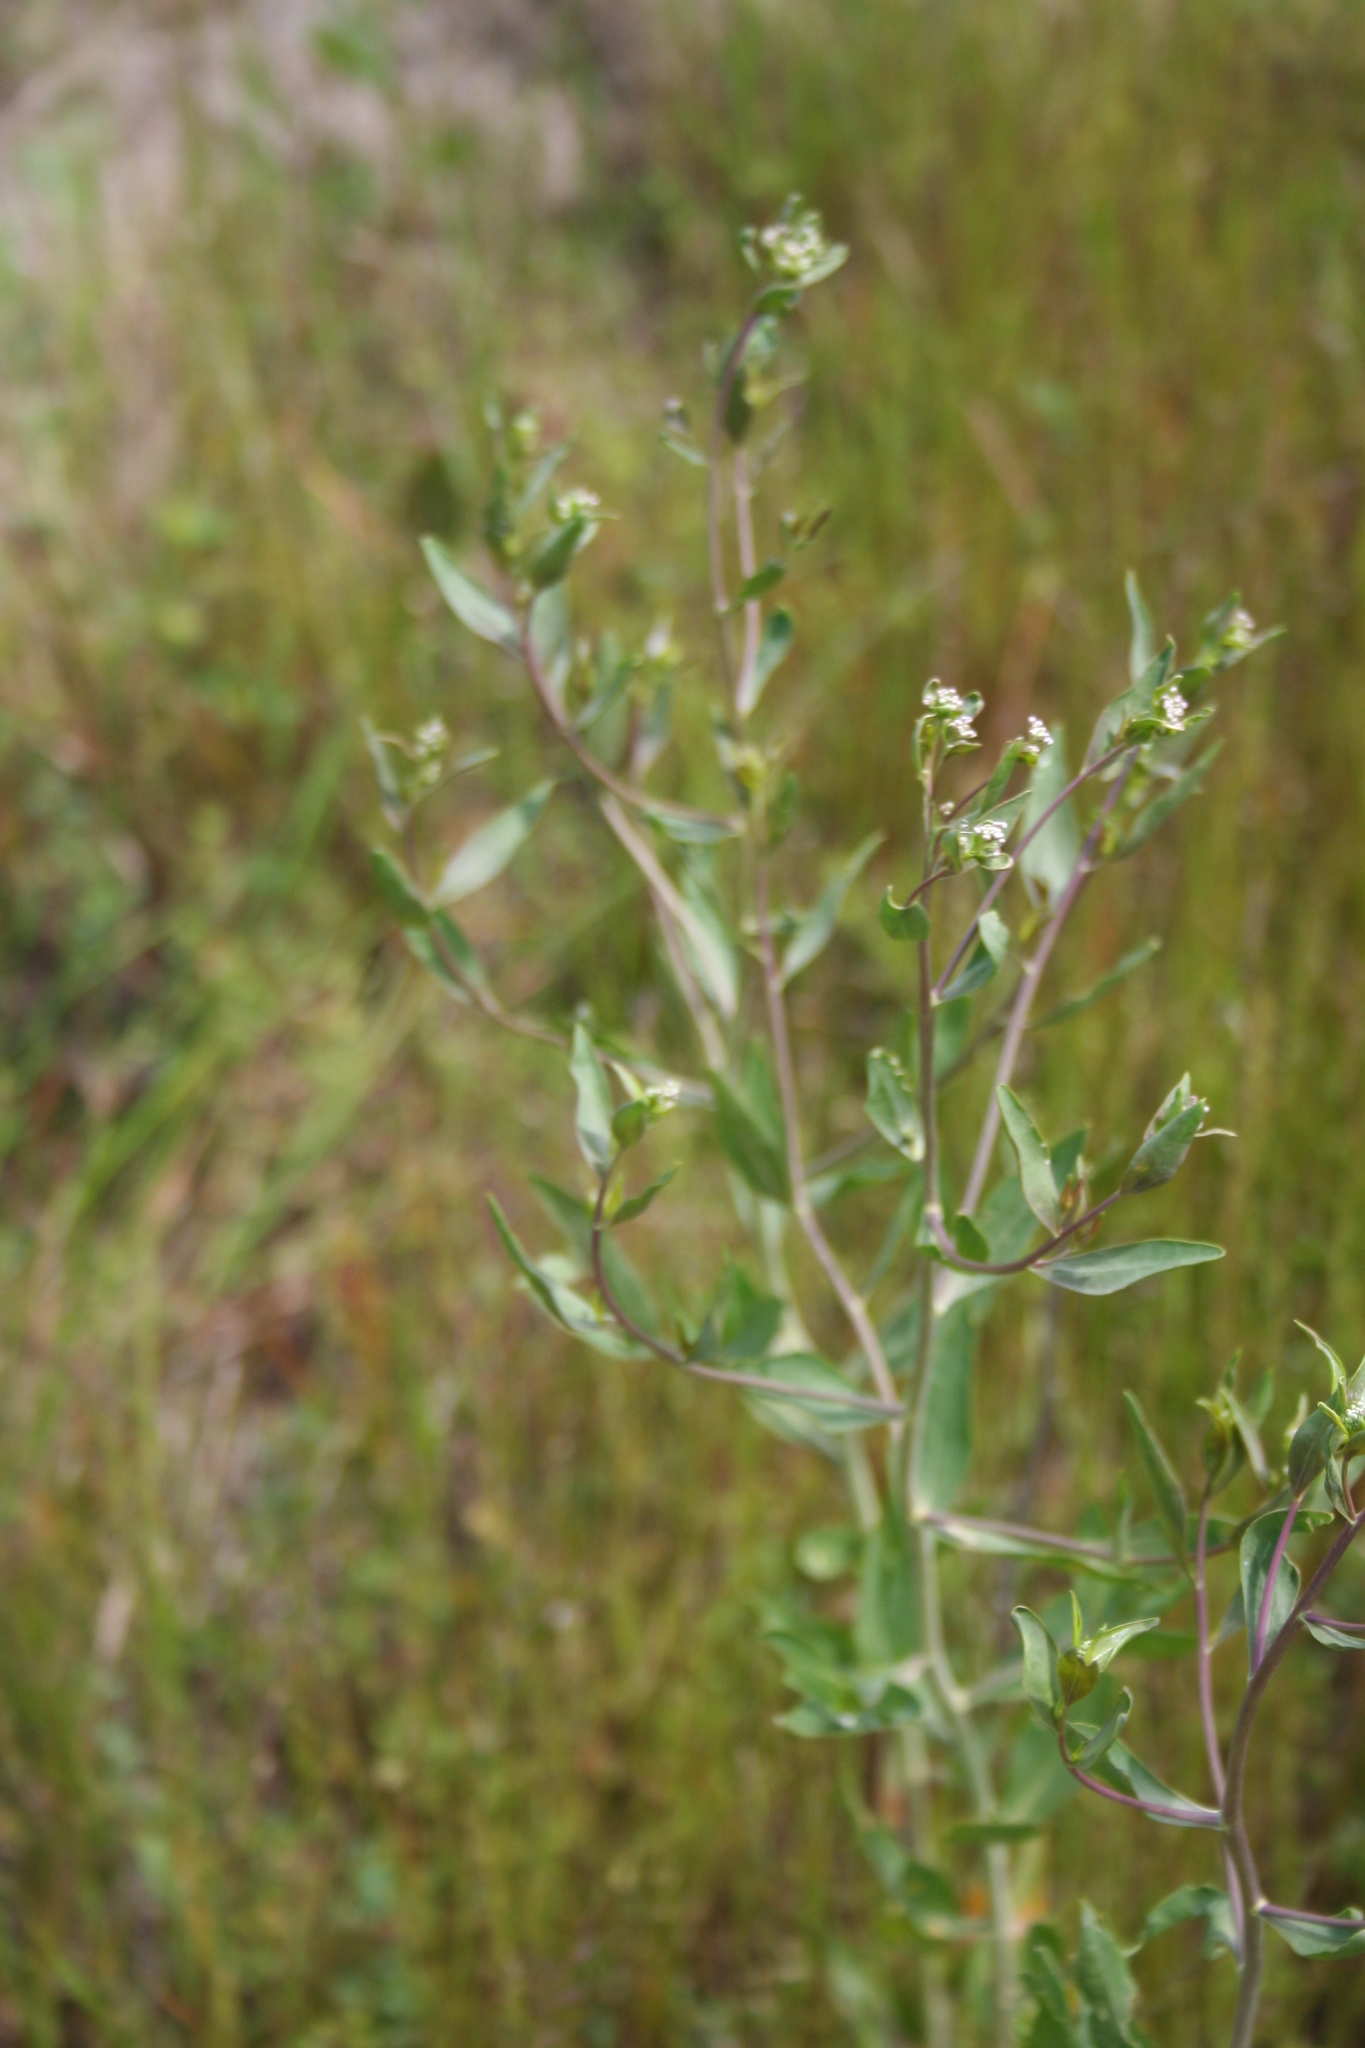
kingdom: Plantae
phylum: Tracheophyta
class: Magnoliopsida
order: Brassicales
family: Brassicaceae
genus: Lepidium
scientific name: Lepidium latifolium
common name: Dittander
